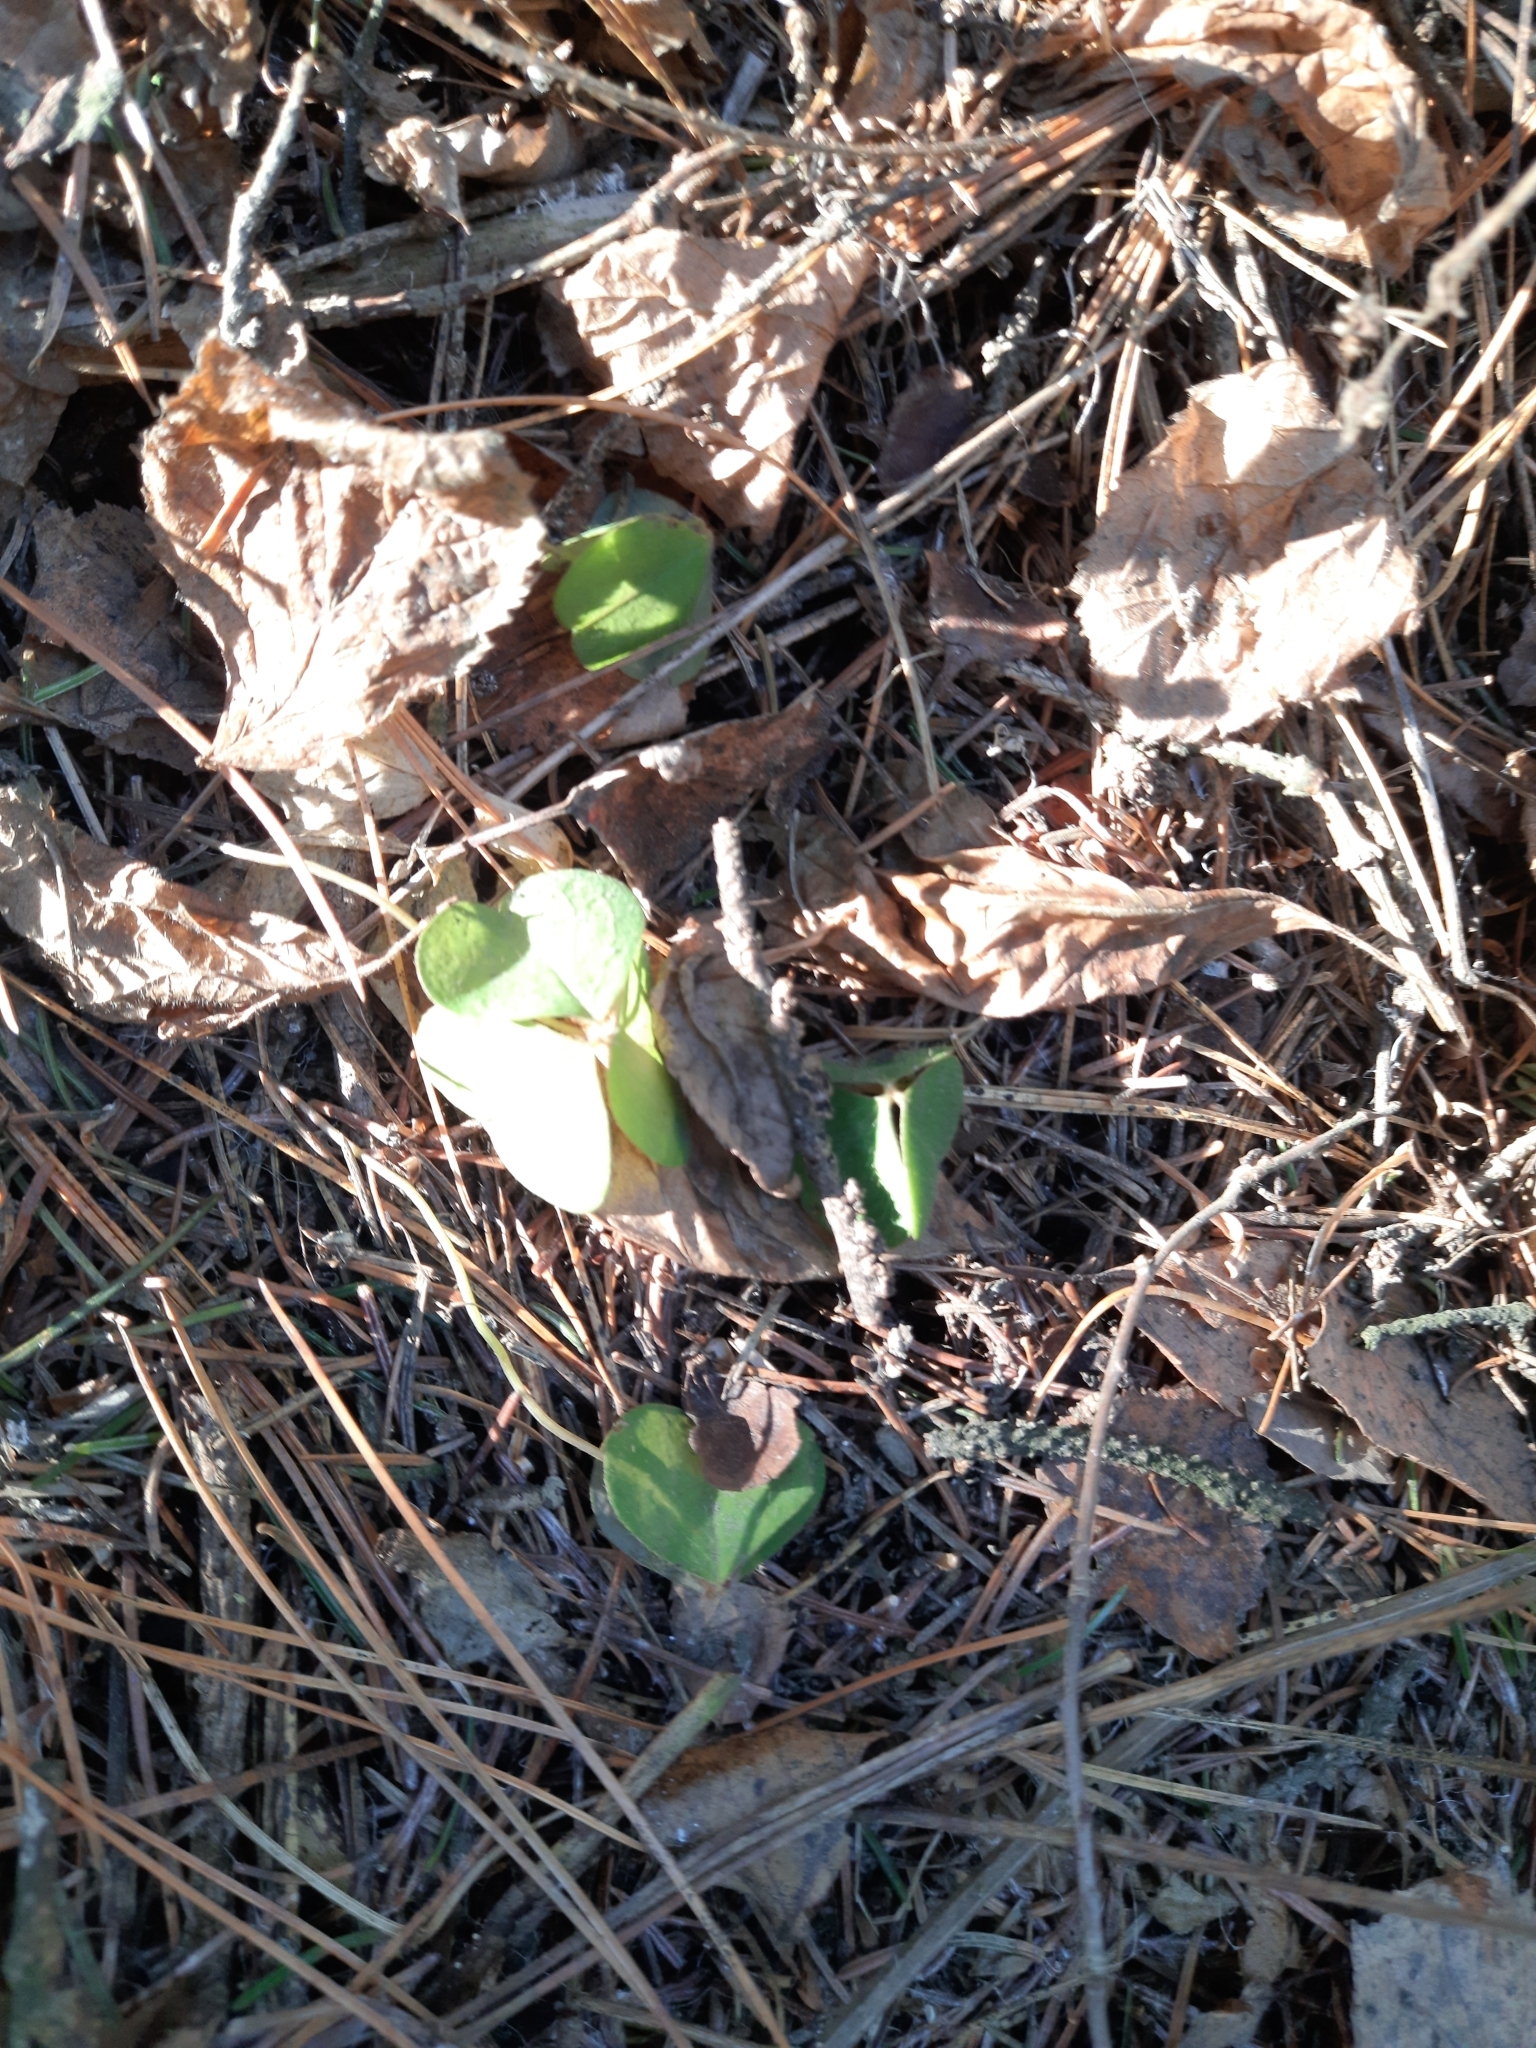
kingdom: Plantae
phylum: Tracheophyta
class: Magnoliopsida
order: Oxalidales
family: Oxalidaceae
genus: Oxalis
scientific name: Oxalis acetosella
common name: Wood-sorrel
